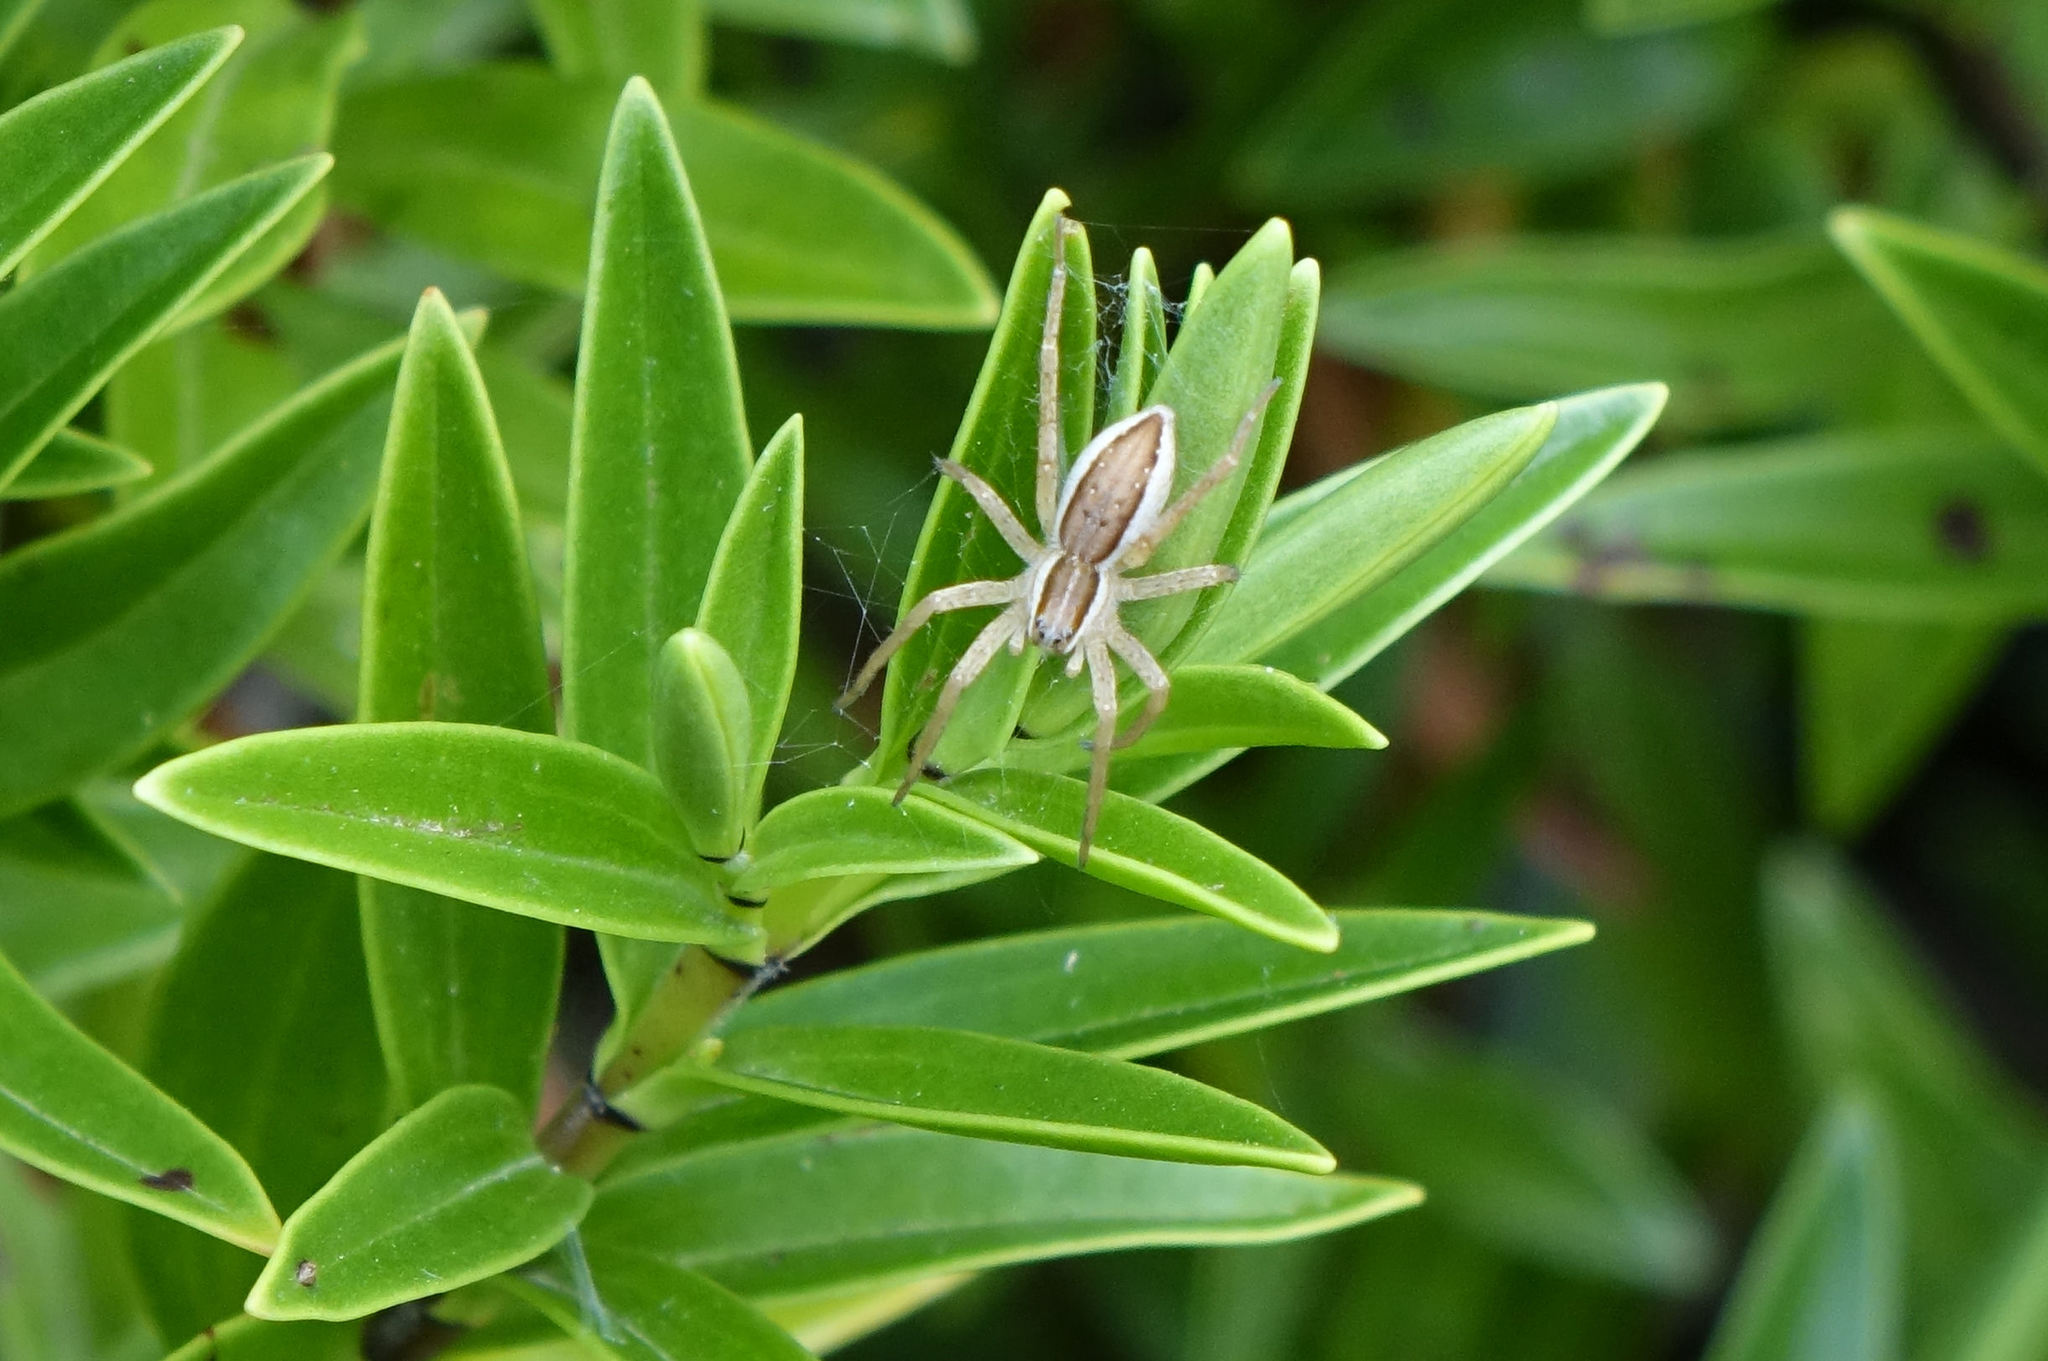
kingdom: Animalia
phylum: Arthropoda
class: Arachnida
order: Araneae
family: Pisauridae
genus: Dolomedes
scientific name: Dolomedes minor
